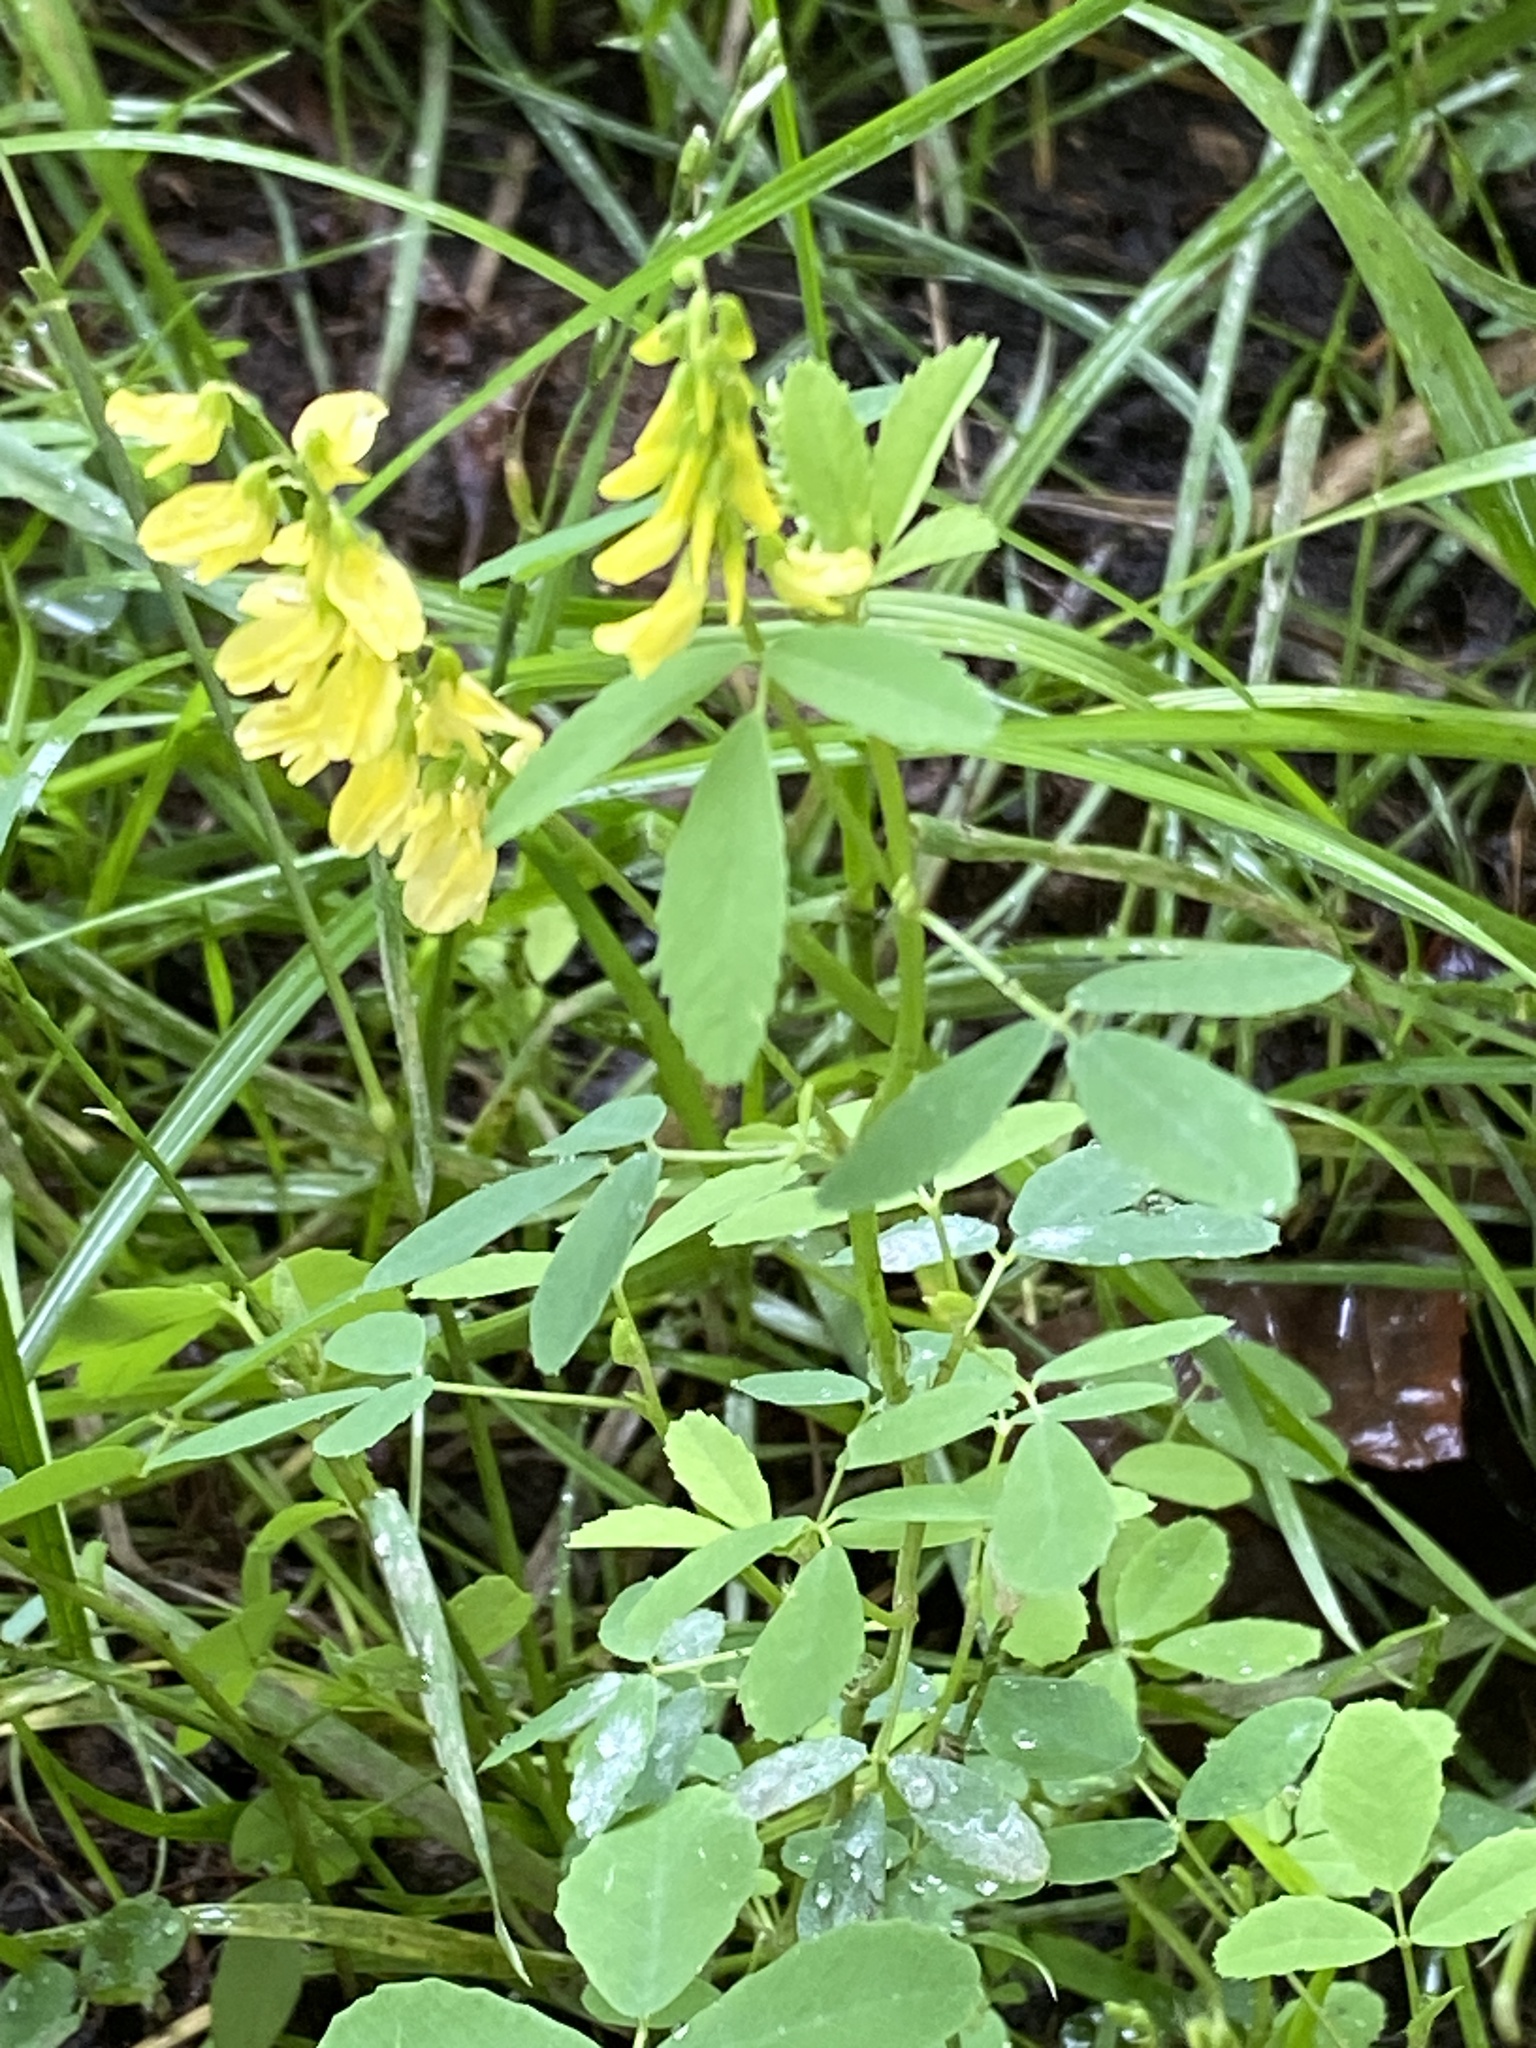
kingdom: Plantae
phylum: Tracheophyta
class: Magnoliopsida
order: Fabales
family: Fabaceae
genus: Melilotus
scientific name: Melilotus officinalis
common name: Sweetclover
